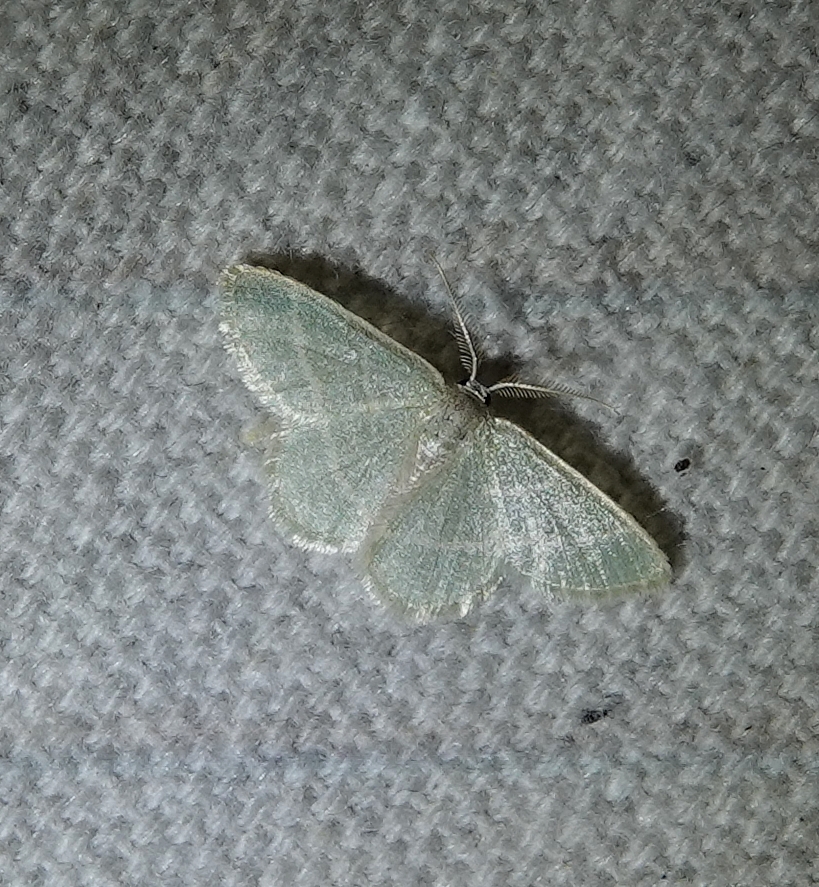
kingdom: Animalia
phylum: Arthropoda
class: Insecta
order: Lepidoptera
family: Geometridae
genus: Chlorochlamys
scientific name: Chlorochlamys chloroleucaria
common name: Blackberry looper
